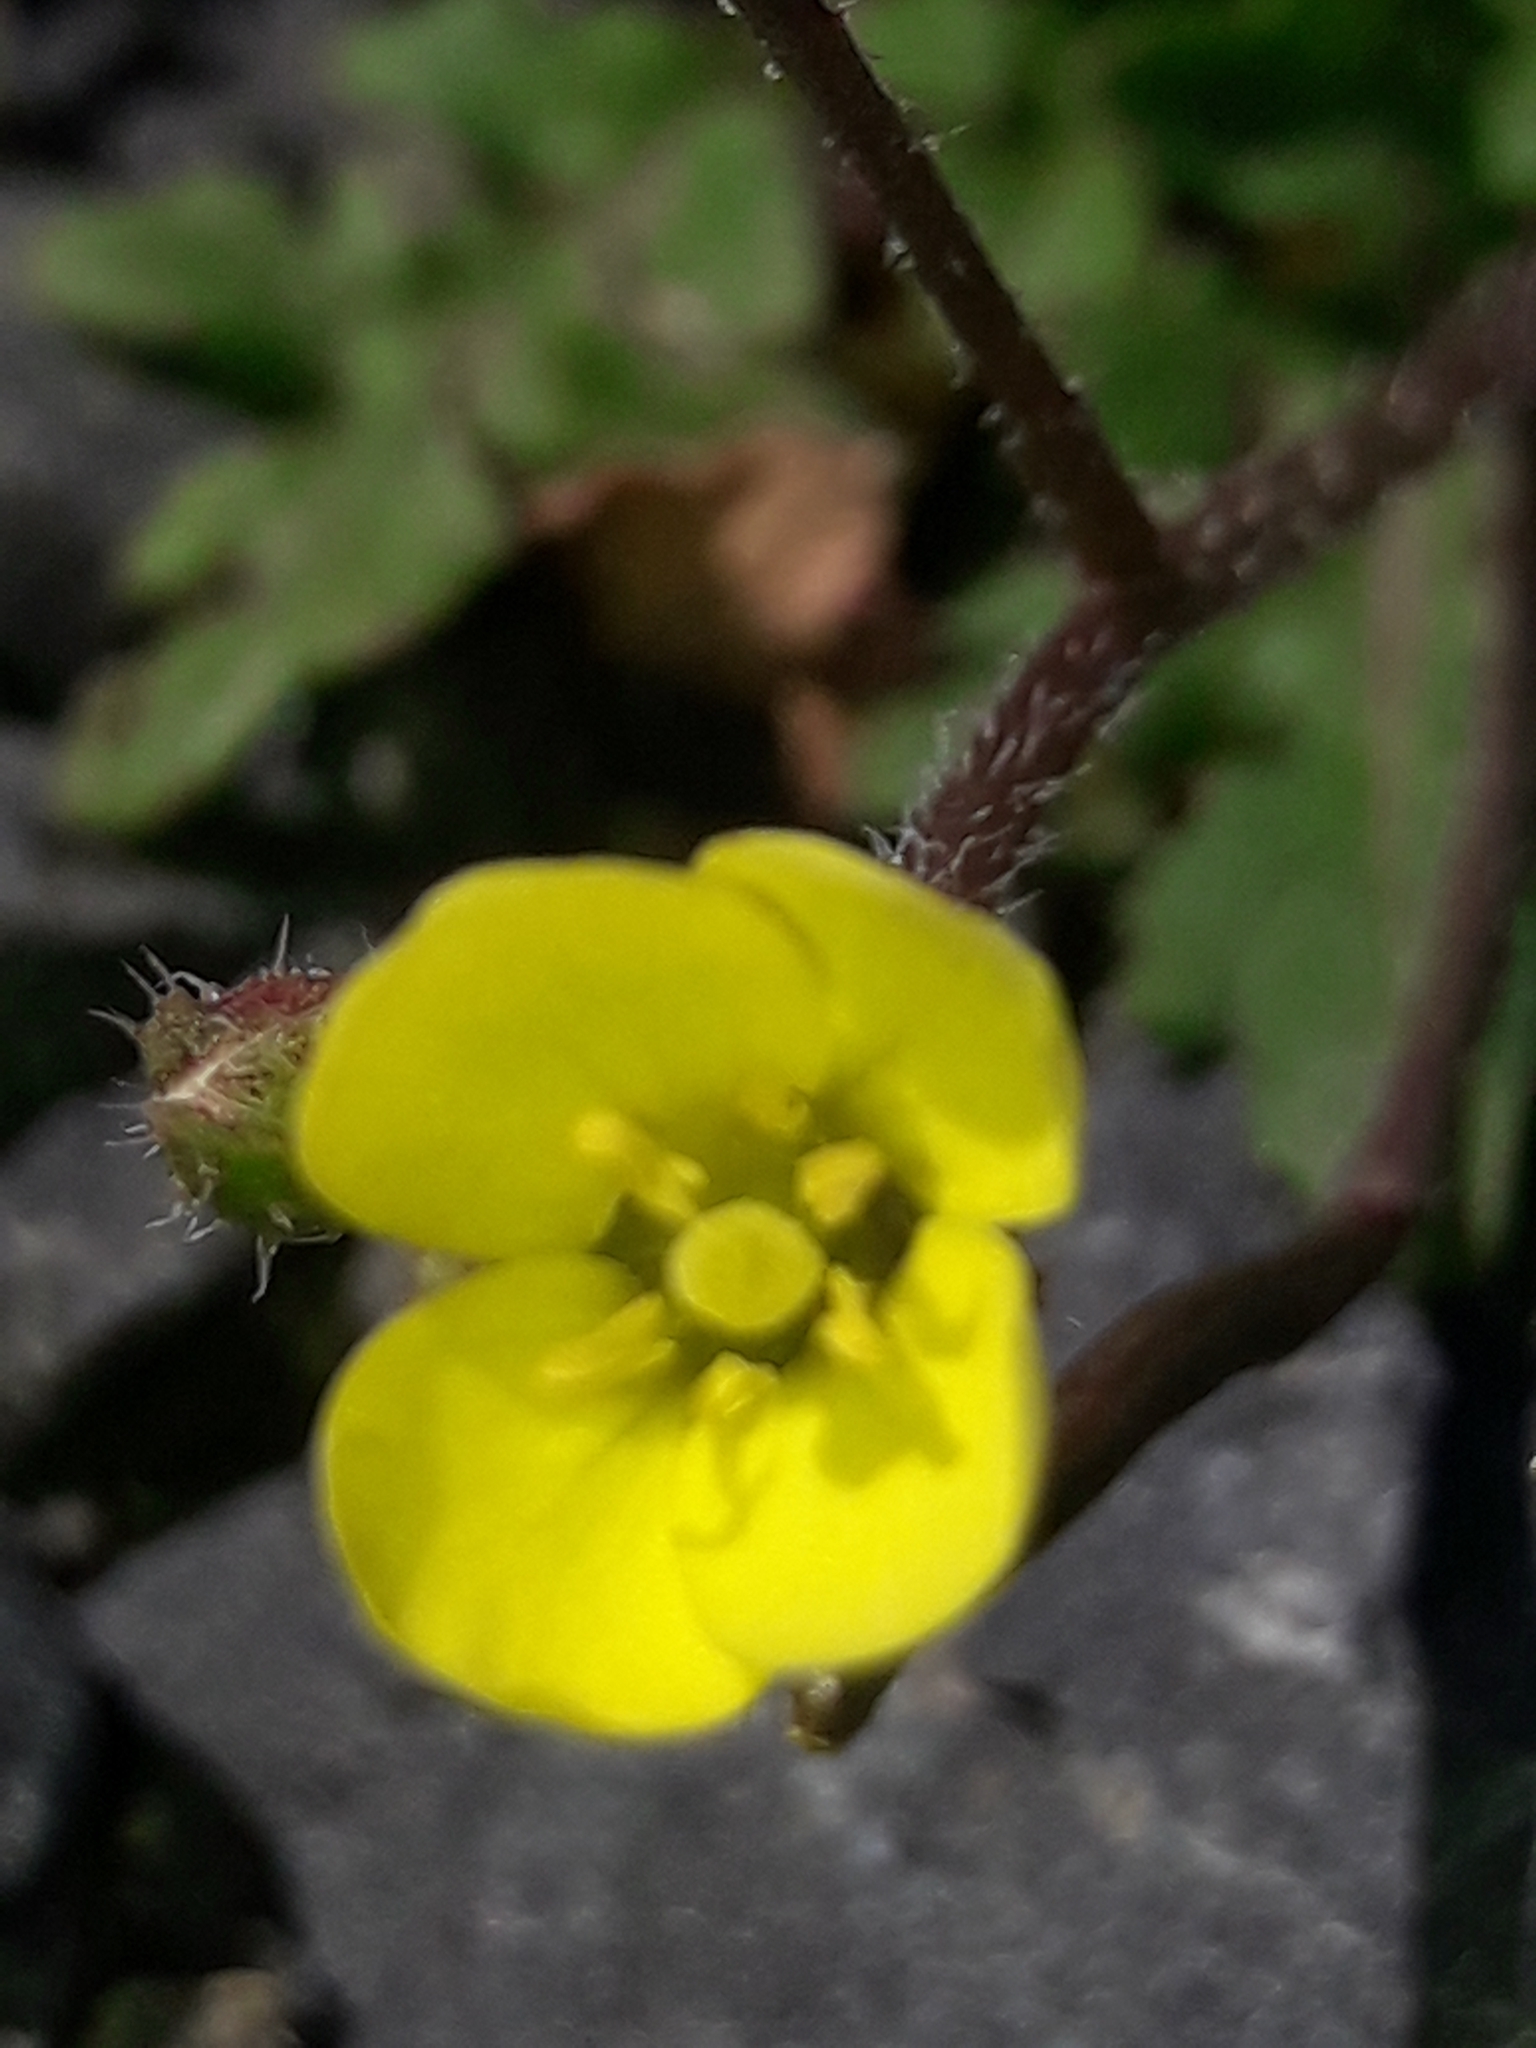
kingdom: Plantae
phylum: Tracheophyta
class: Magnoliopsida
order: Brassicales
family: Brassicaceae
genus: Diplotaxis
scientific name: Diplotaxis muralis
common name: Annual wall-rocket
